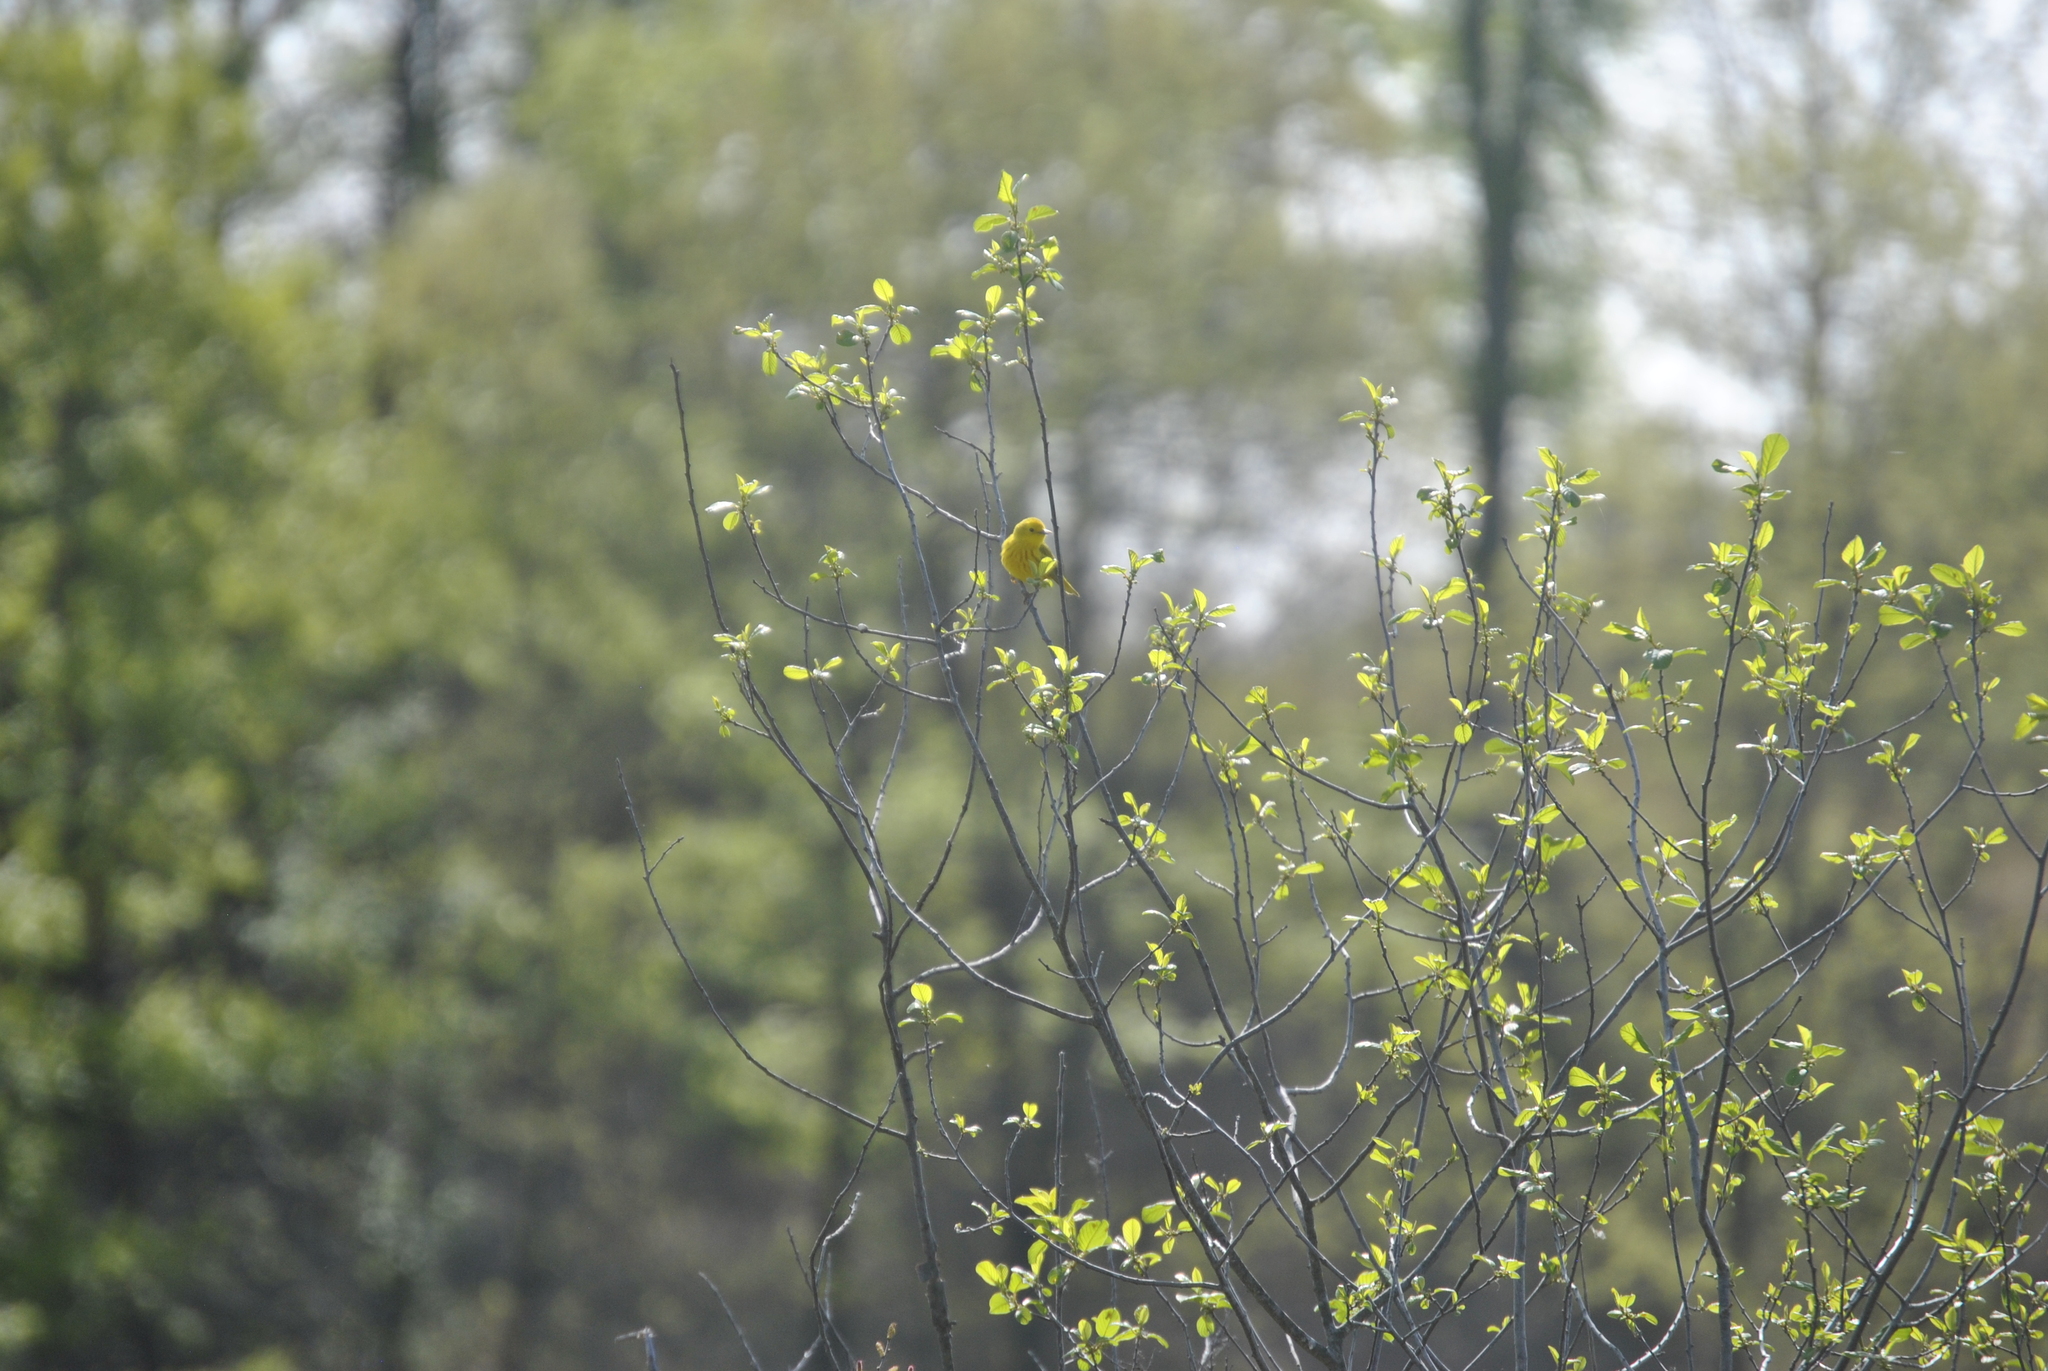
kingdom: Animalia
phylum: Chordata
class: Aves
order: Passeriformes
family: Parulidae
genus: Setophaga
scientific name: Setophaga petechia
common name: Yellow warbler
